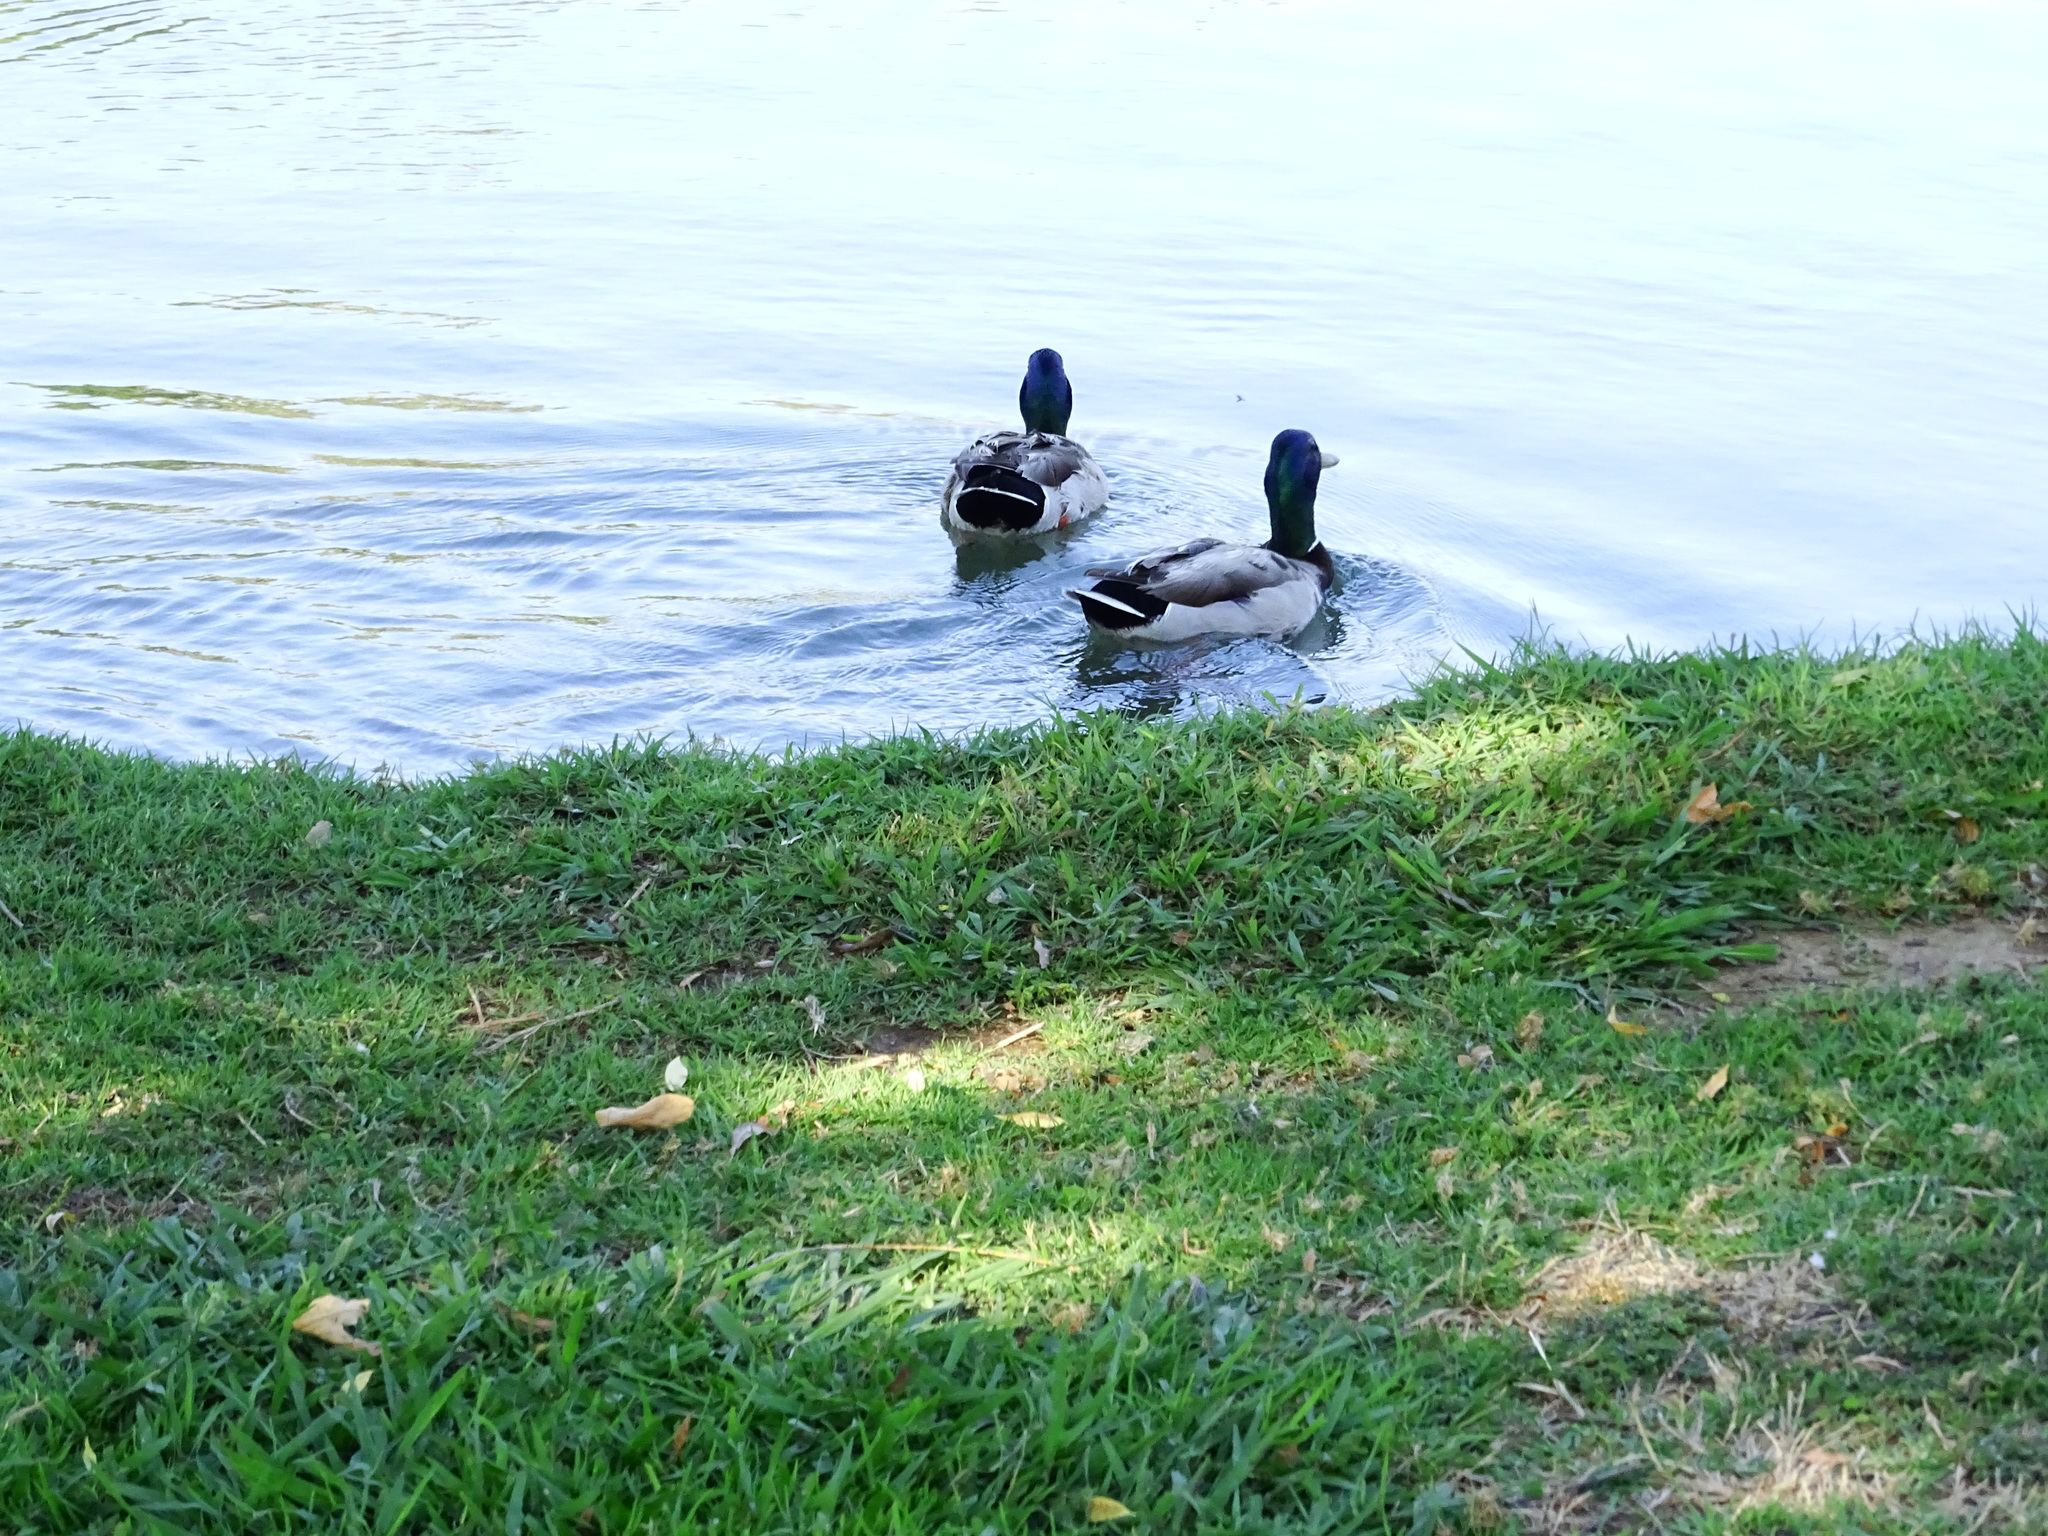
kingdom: Animalia
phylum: Chordata
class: Aves
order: Anseriformes
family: Anatidae
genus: Anas
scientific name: Anas platyrhynchos
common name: Mallard
